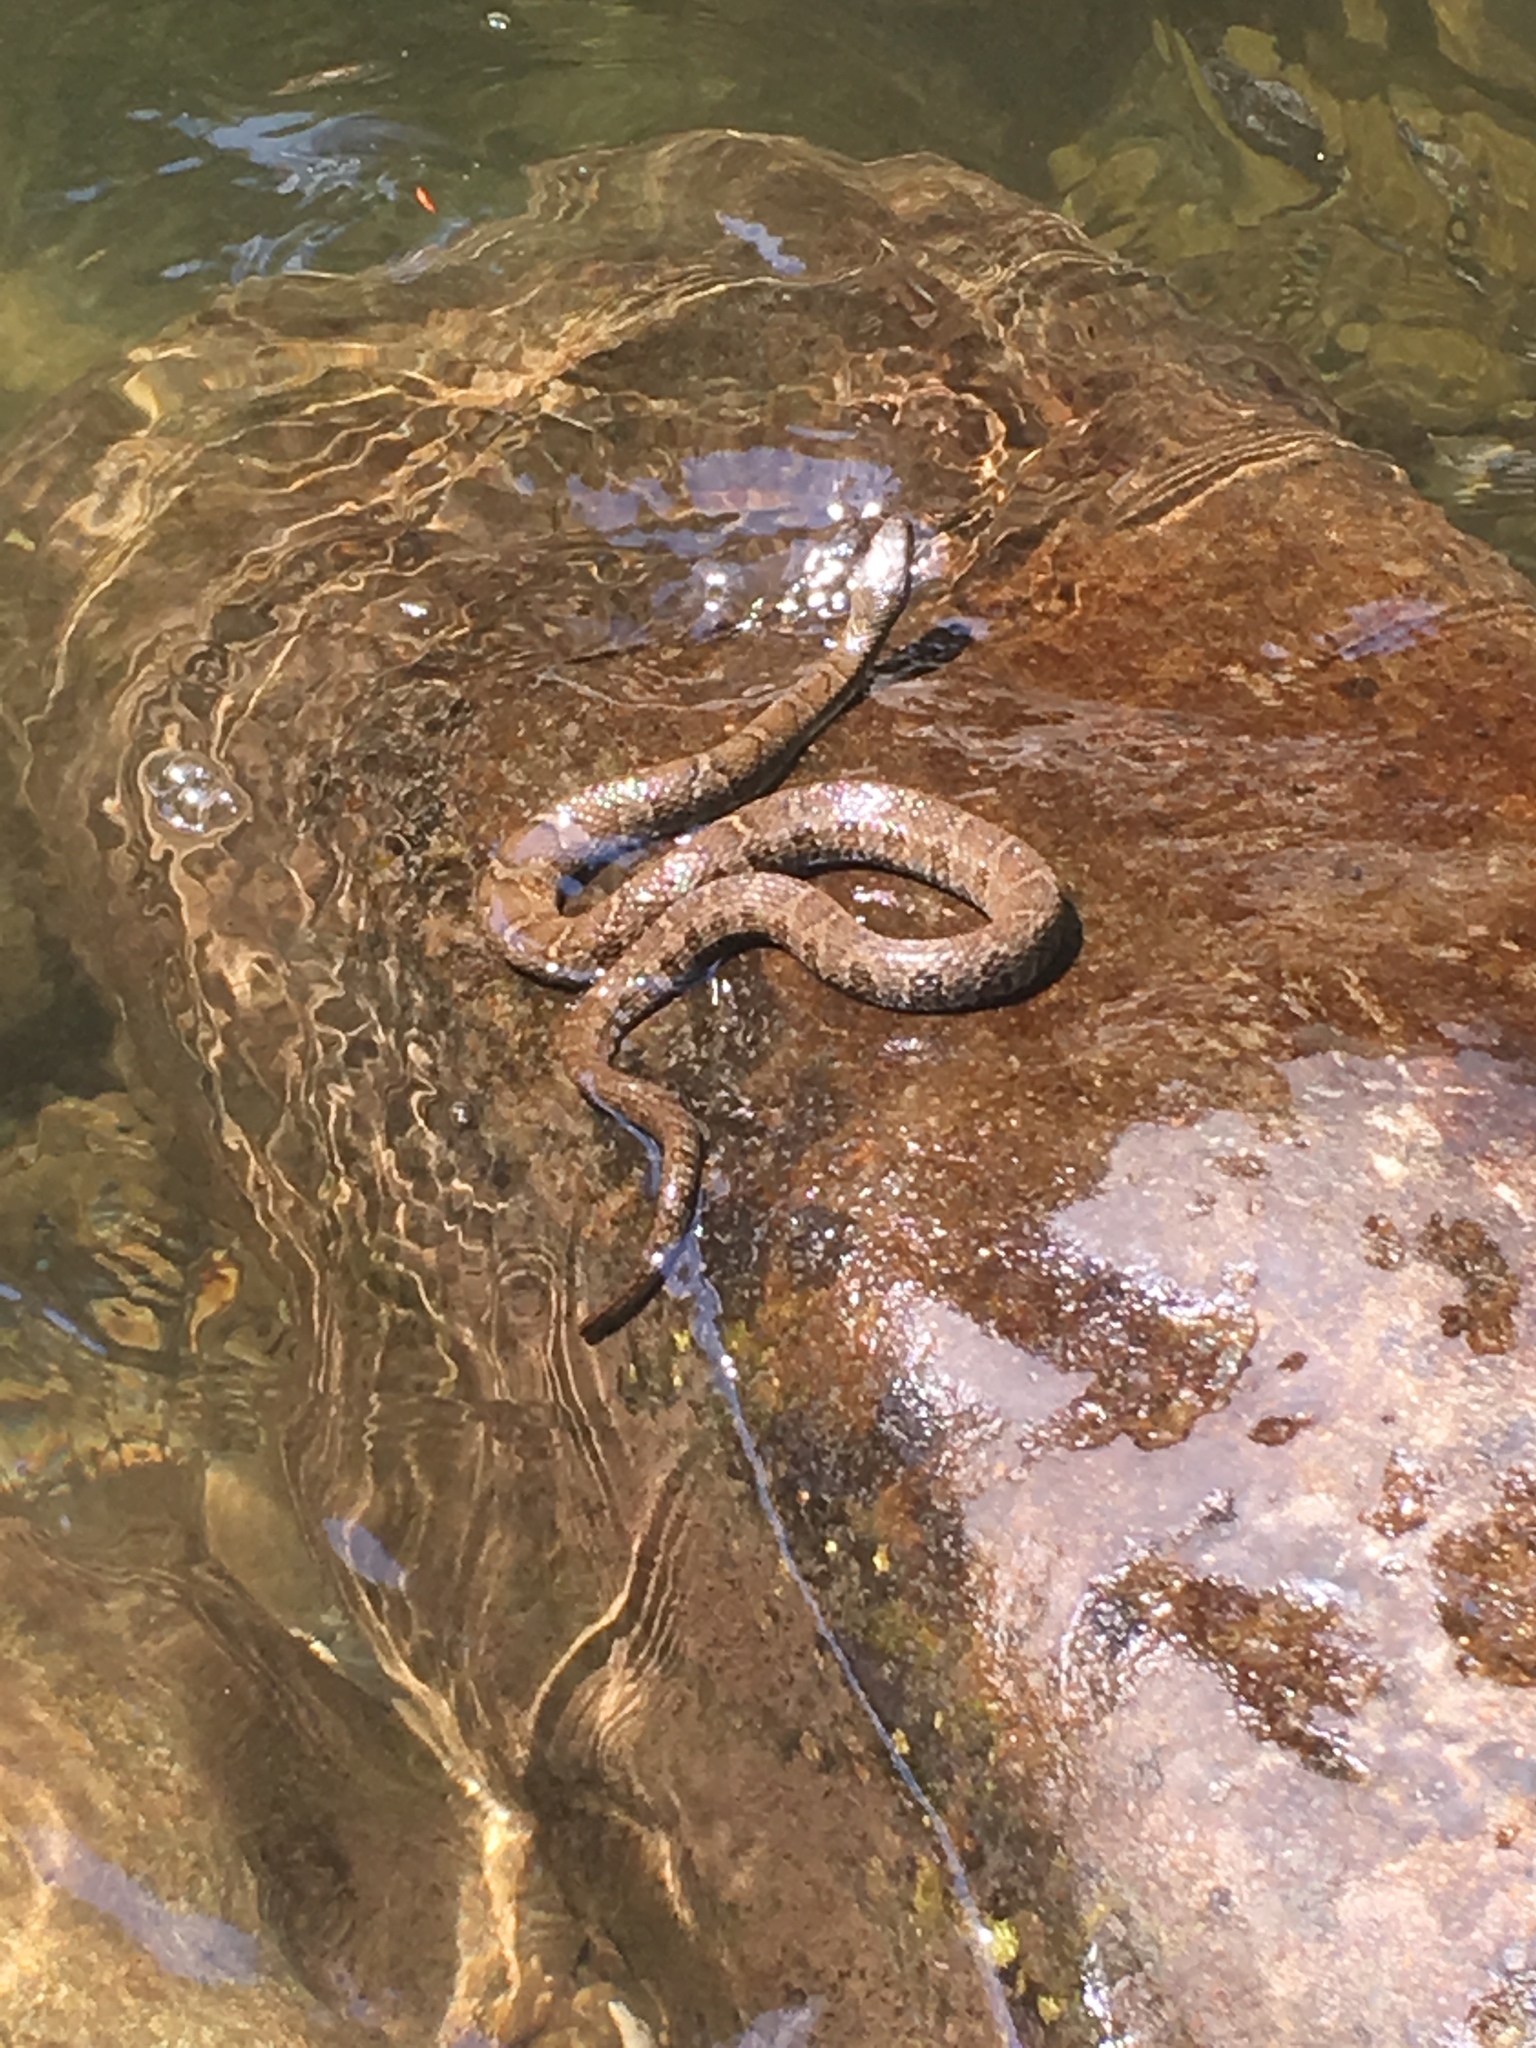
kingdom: Animalia
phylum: Chordata
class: Squamata
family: Colubridae
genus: Nerodia
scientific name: Nerodia sipedon
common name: Northern water snake
